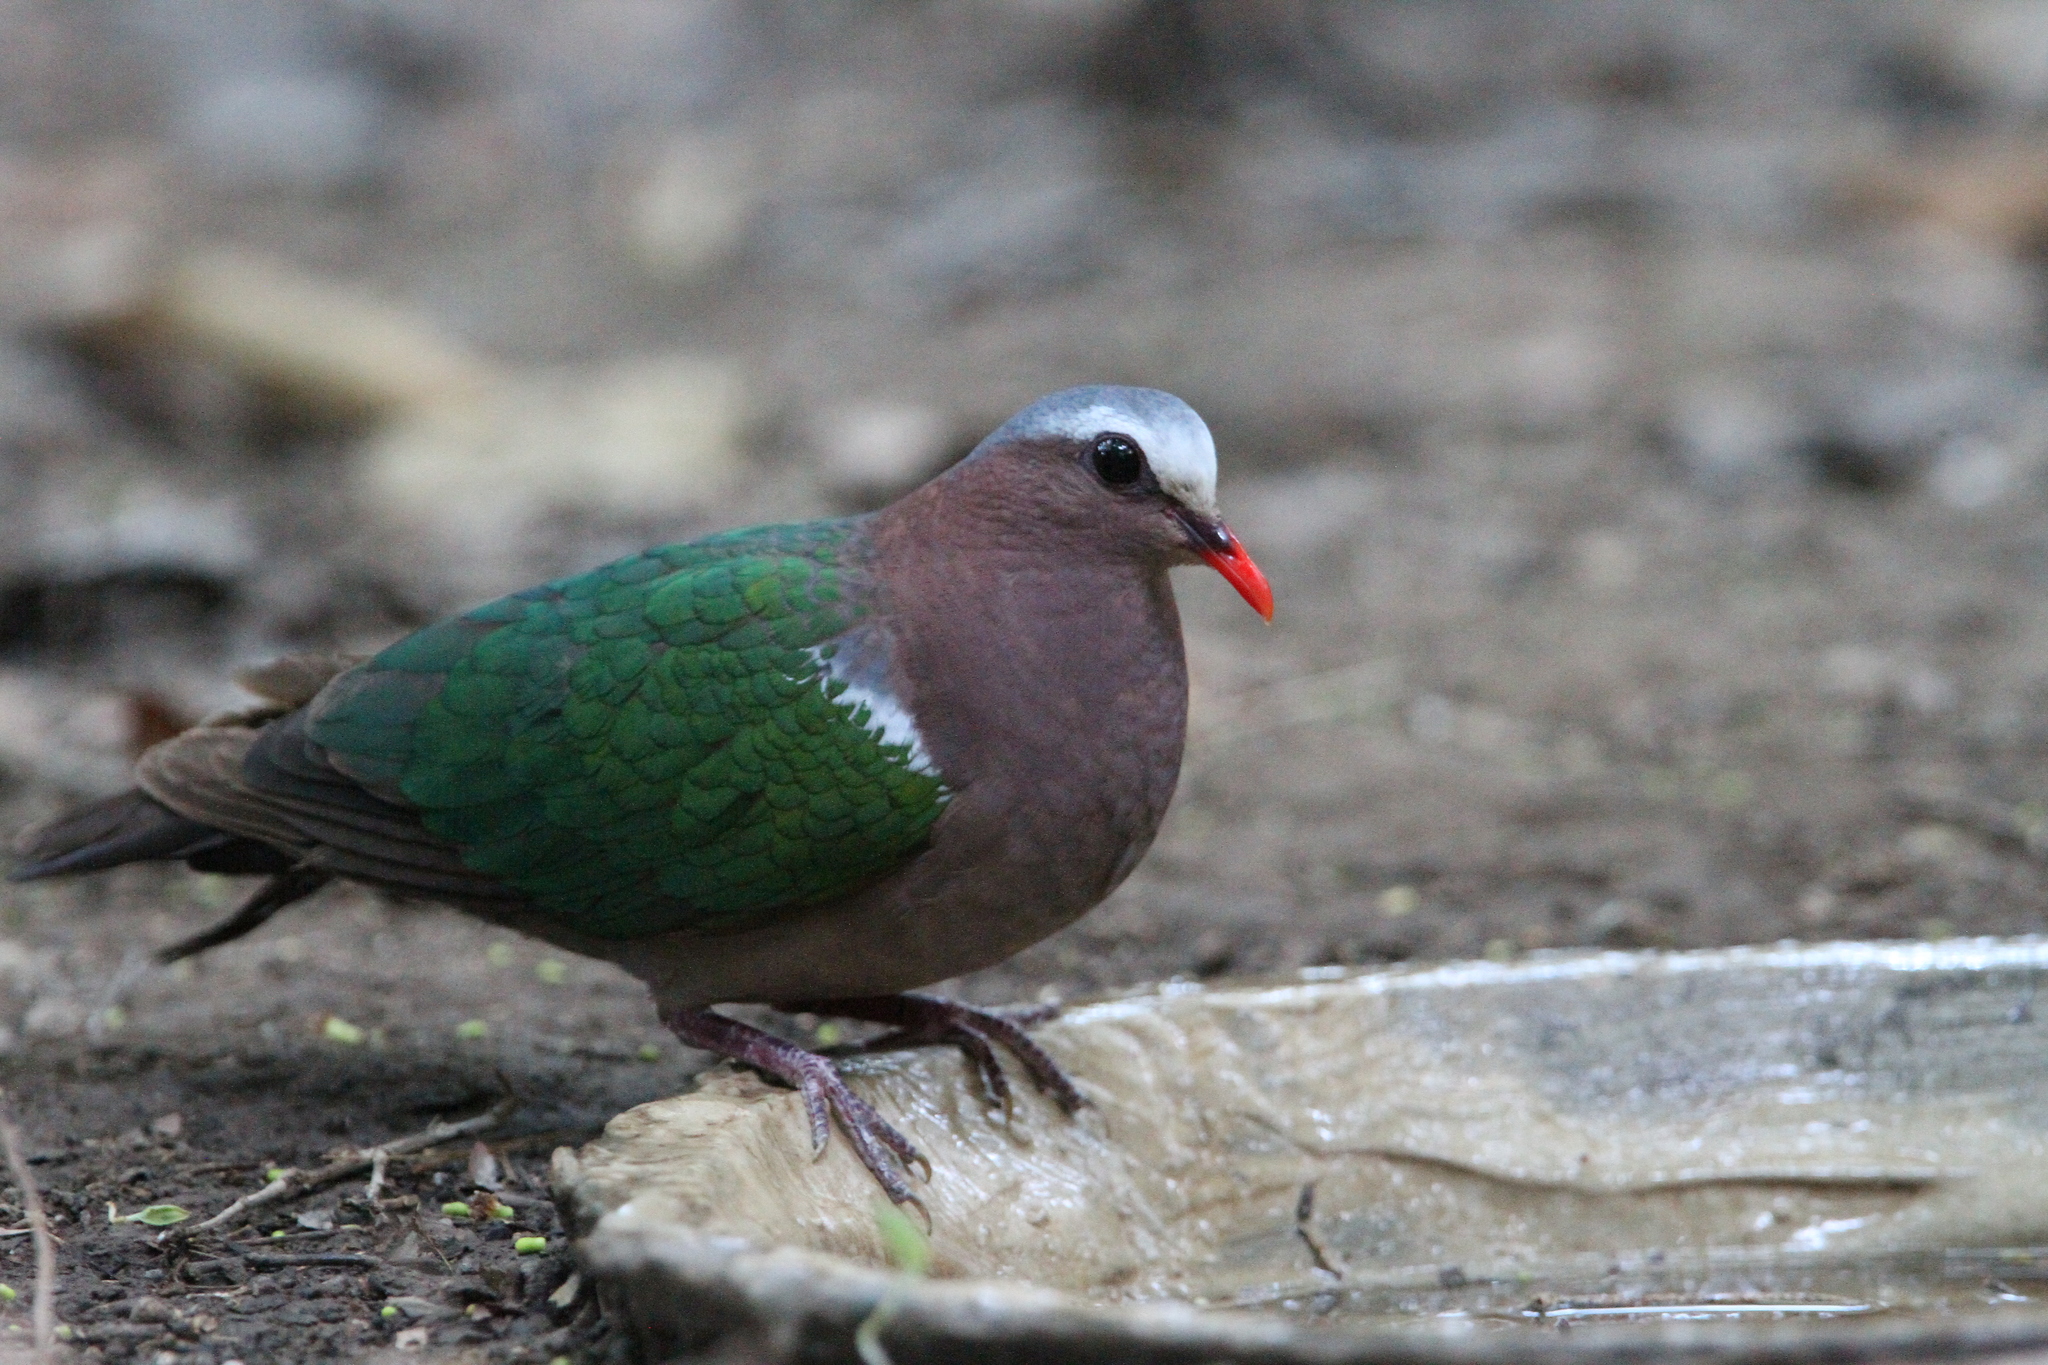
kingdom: Animalia
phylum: Chordata
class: Aves
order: Columbiformes
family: Columbidae
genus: Chalcophaps
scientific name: Chalcophaps indica
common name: Common emerald dove
